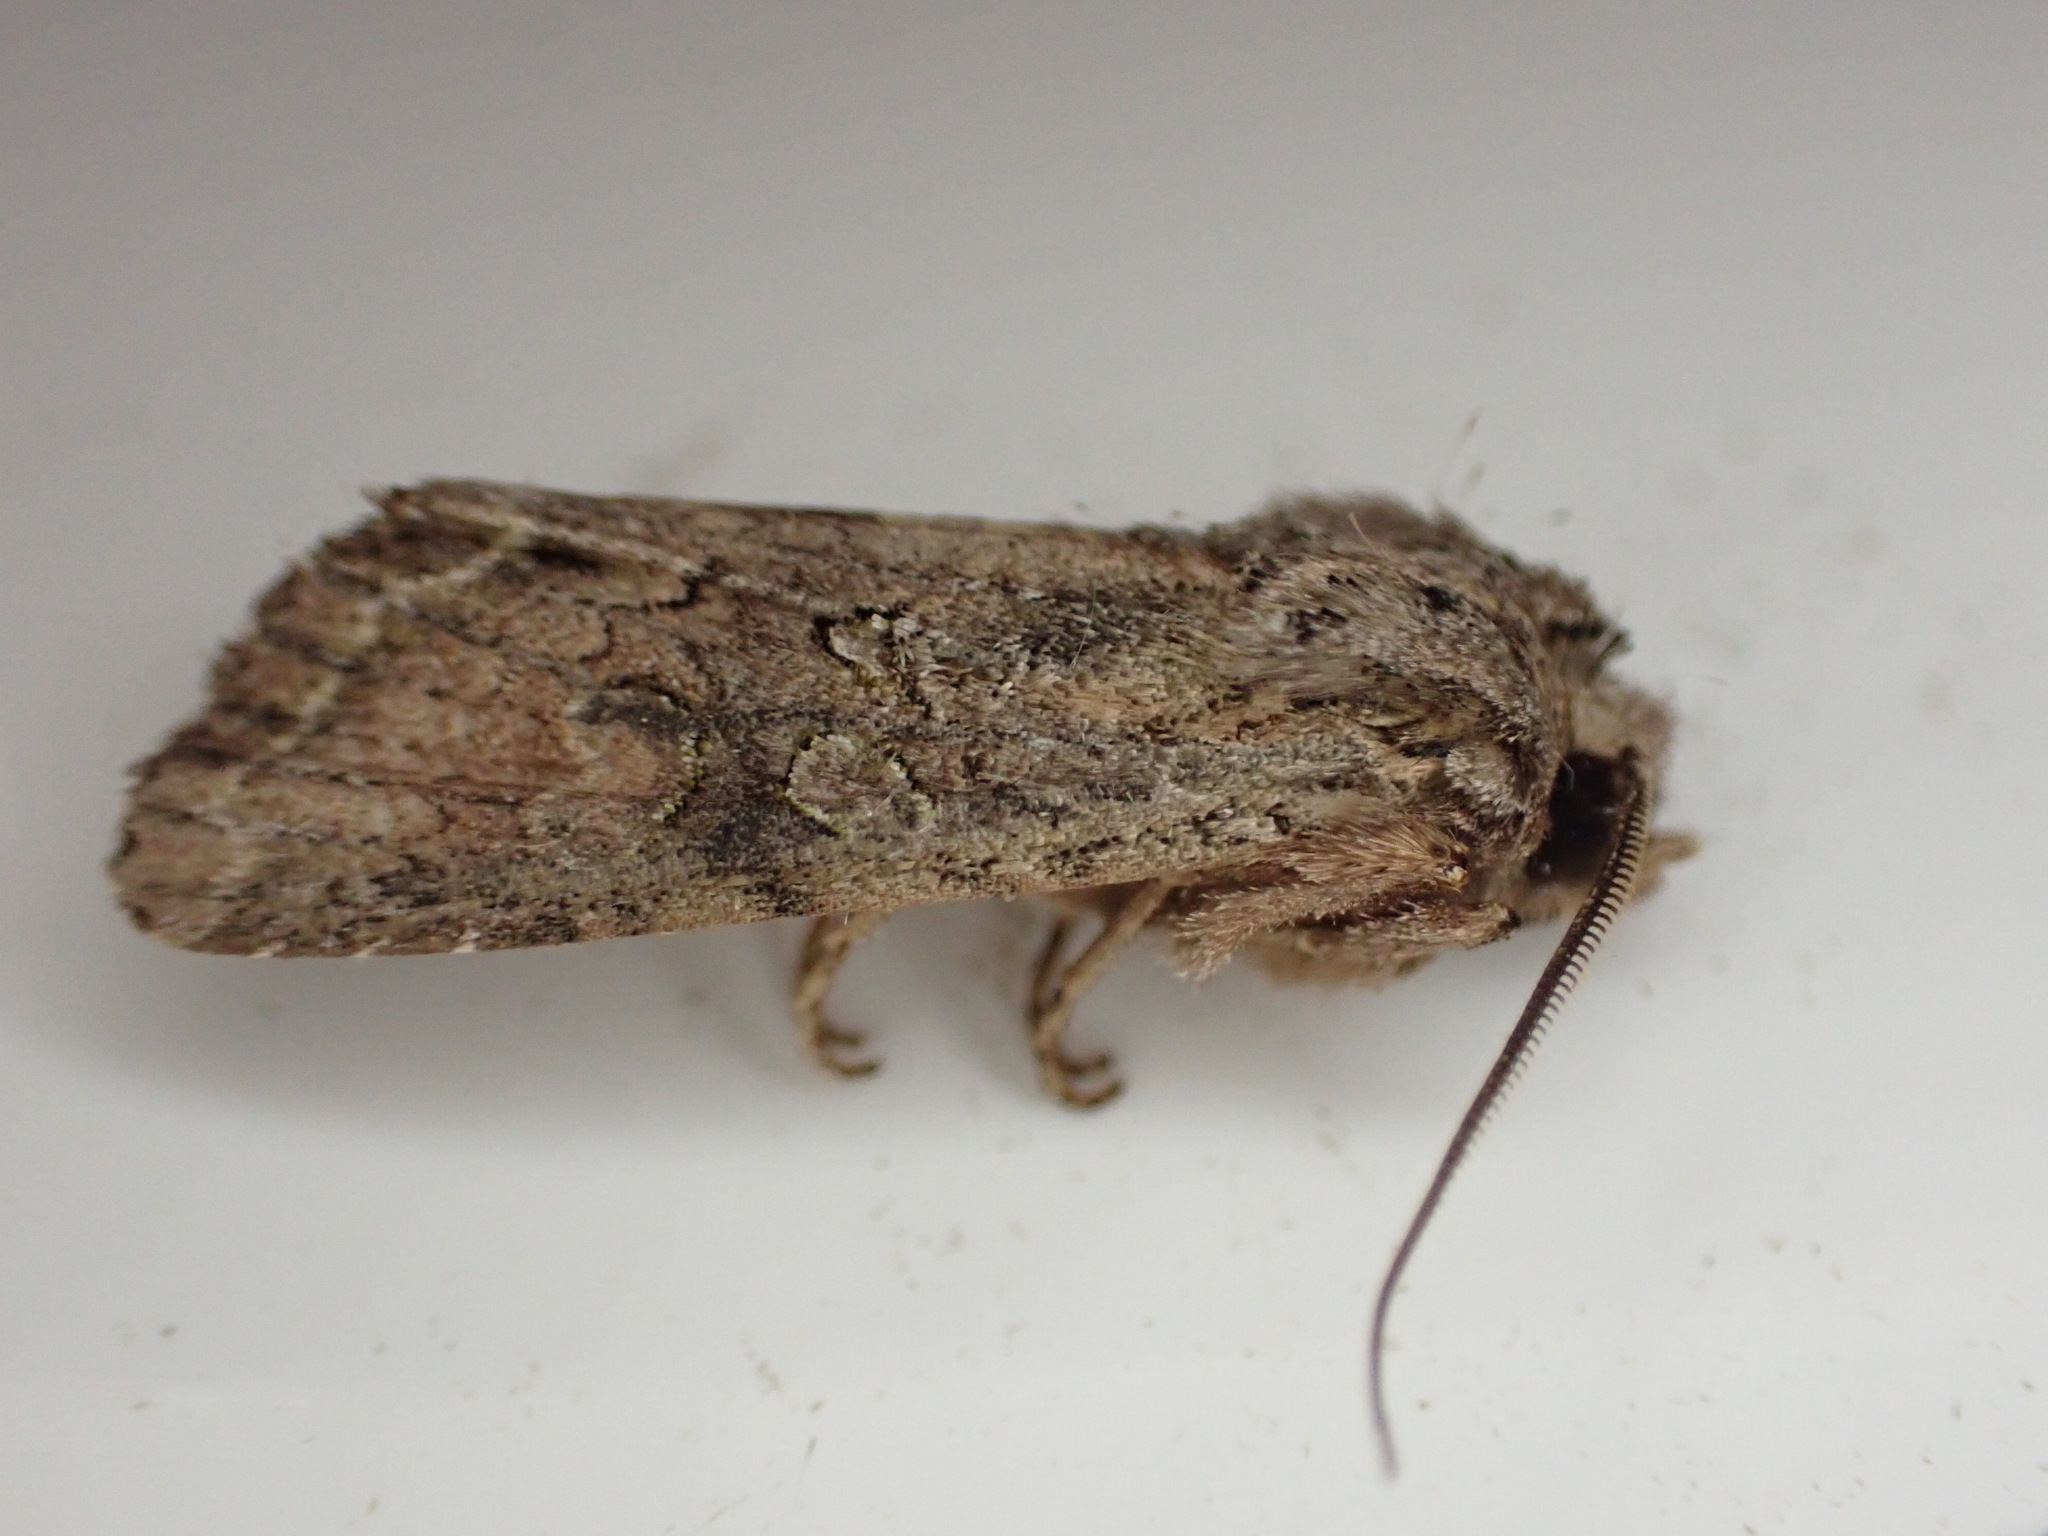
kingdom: Animalia
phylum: Arthropoda
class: Insecta
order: Lepidoptera
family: Noctuidae
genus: Ichneutica
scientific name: Ichneutica mutans
